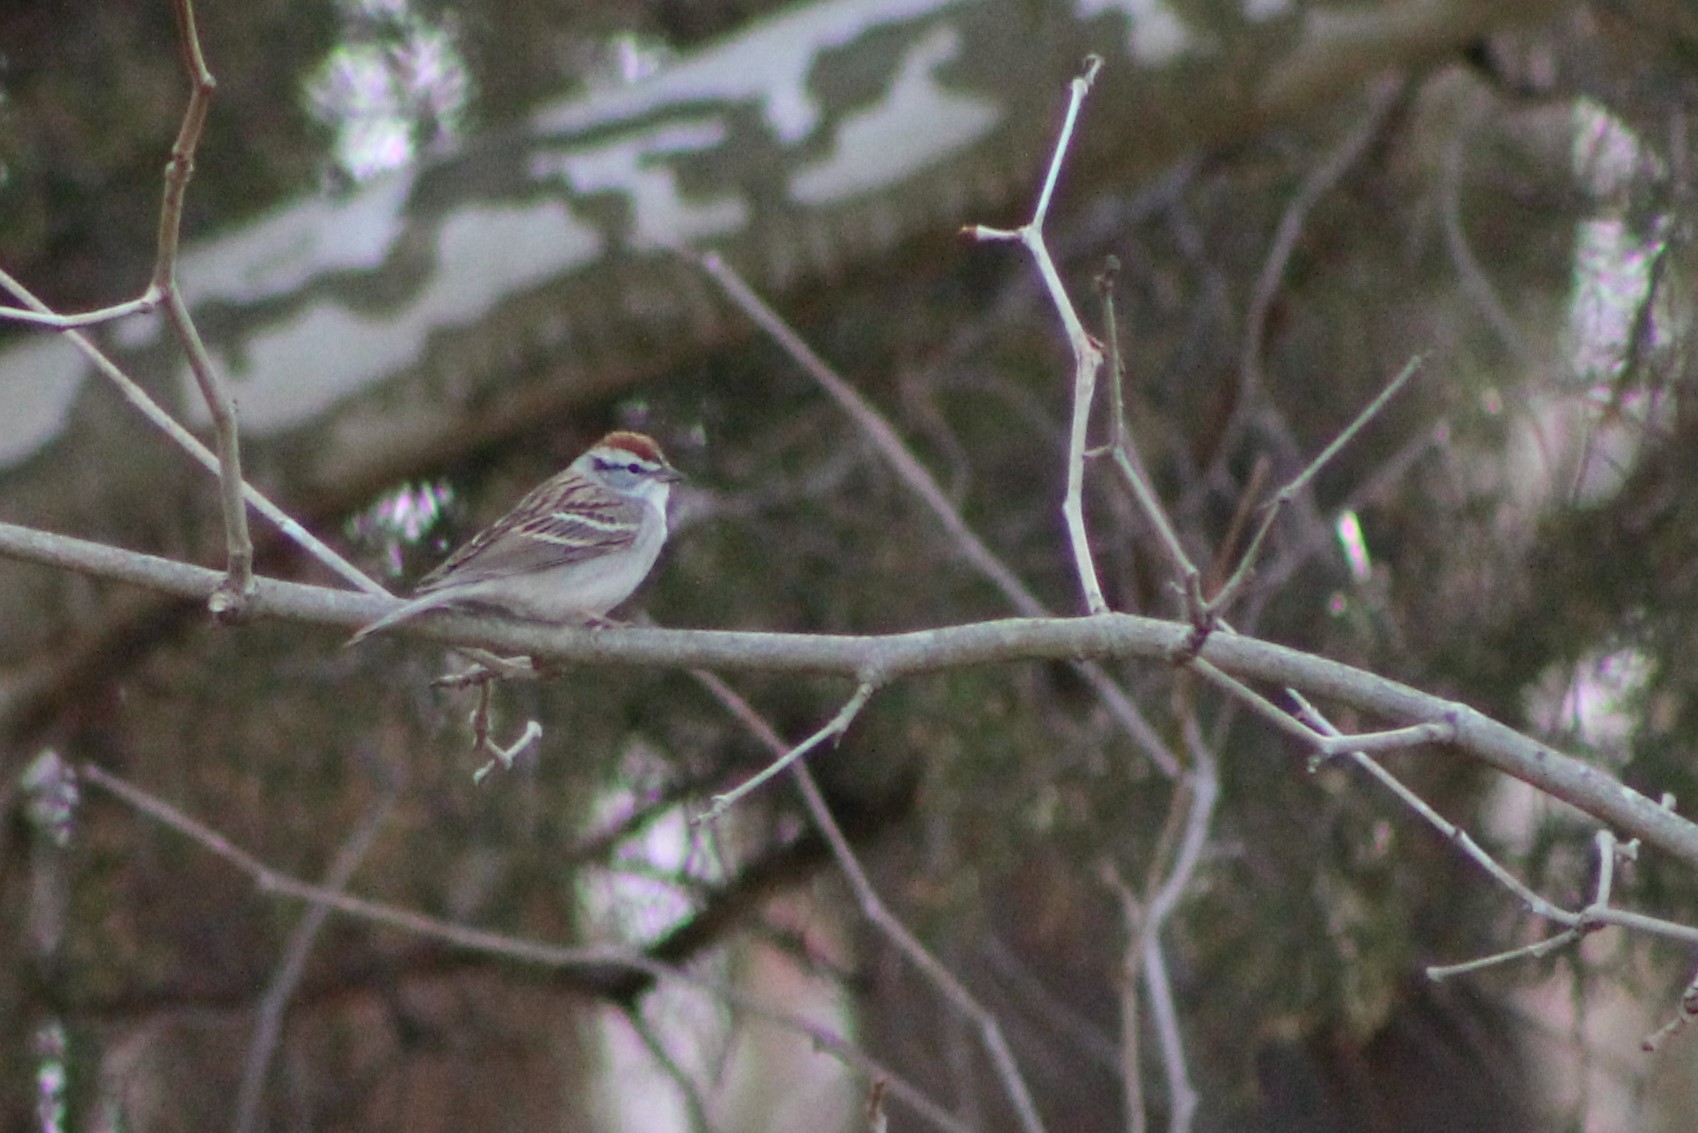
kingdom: Animalia
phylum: Chordata
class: Aves
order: Passeriformes
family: Passerellidae
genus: Spizella
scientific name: Spizella passerina
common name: Chipping sparrow
